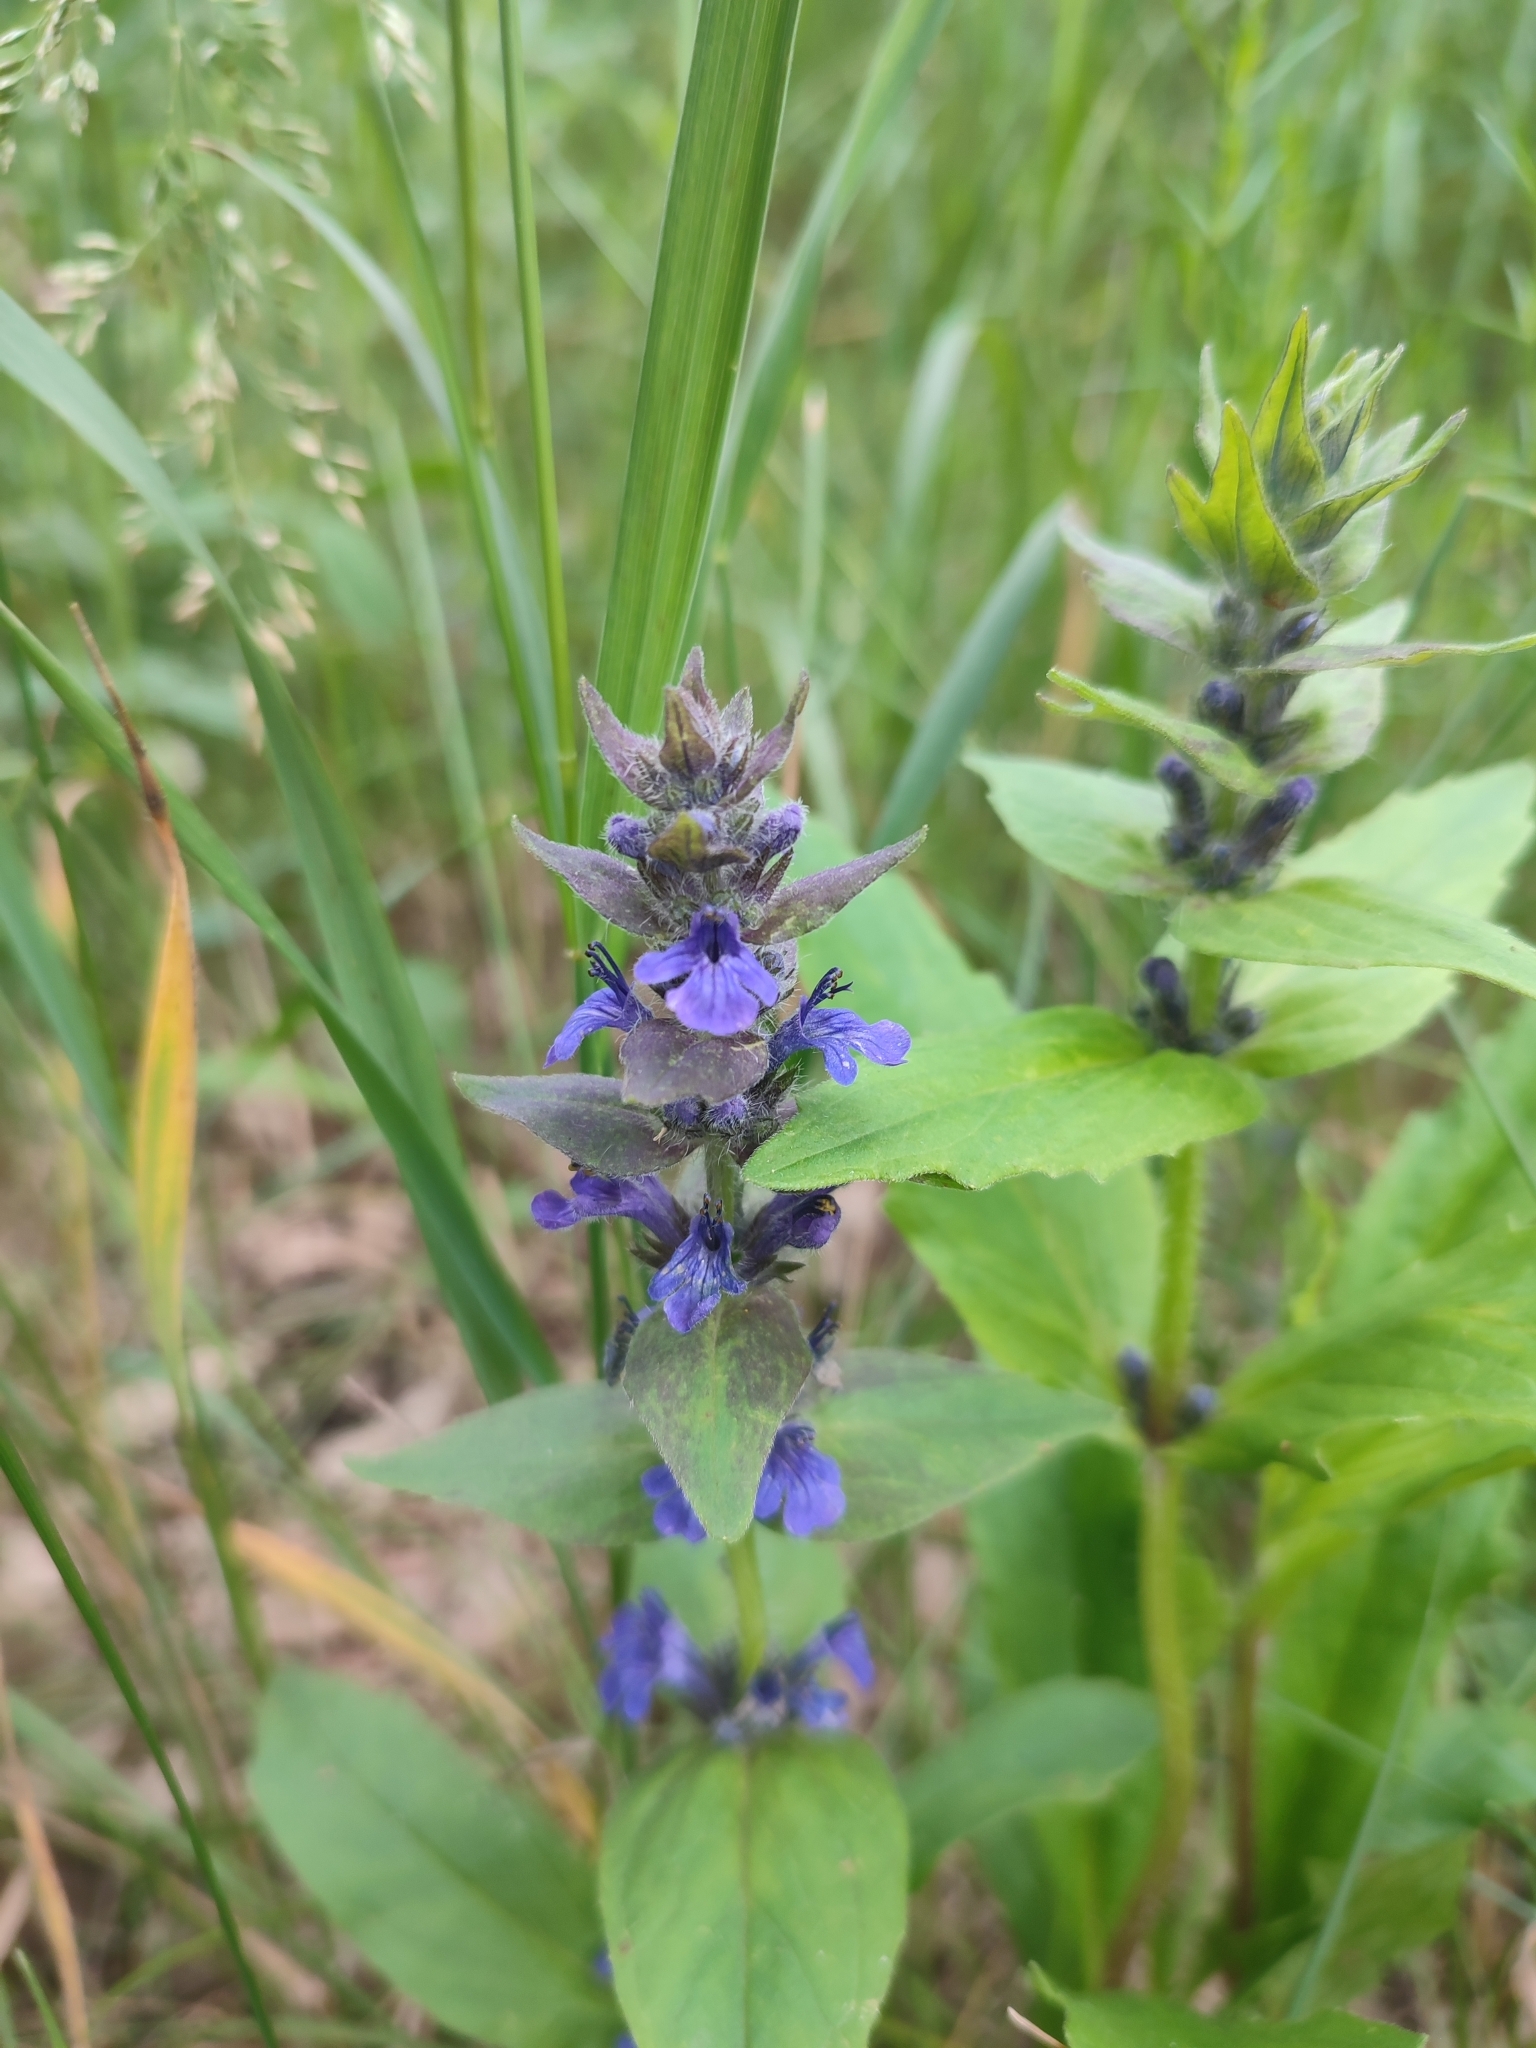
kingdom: Plantae
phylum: Tracheophyta
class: Magnoliopsida
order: Lamiales
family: Lamiaceae
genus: Ajuga
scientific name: Ajuga genevensis
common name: Blue bugle
